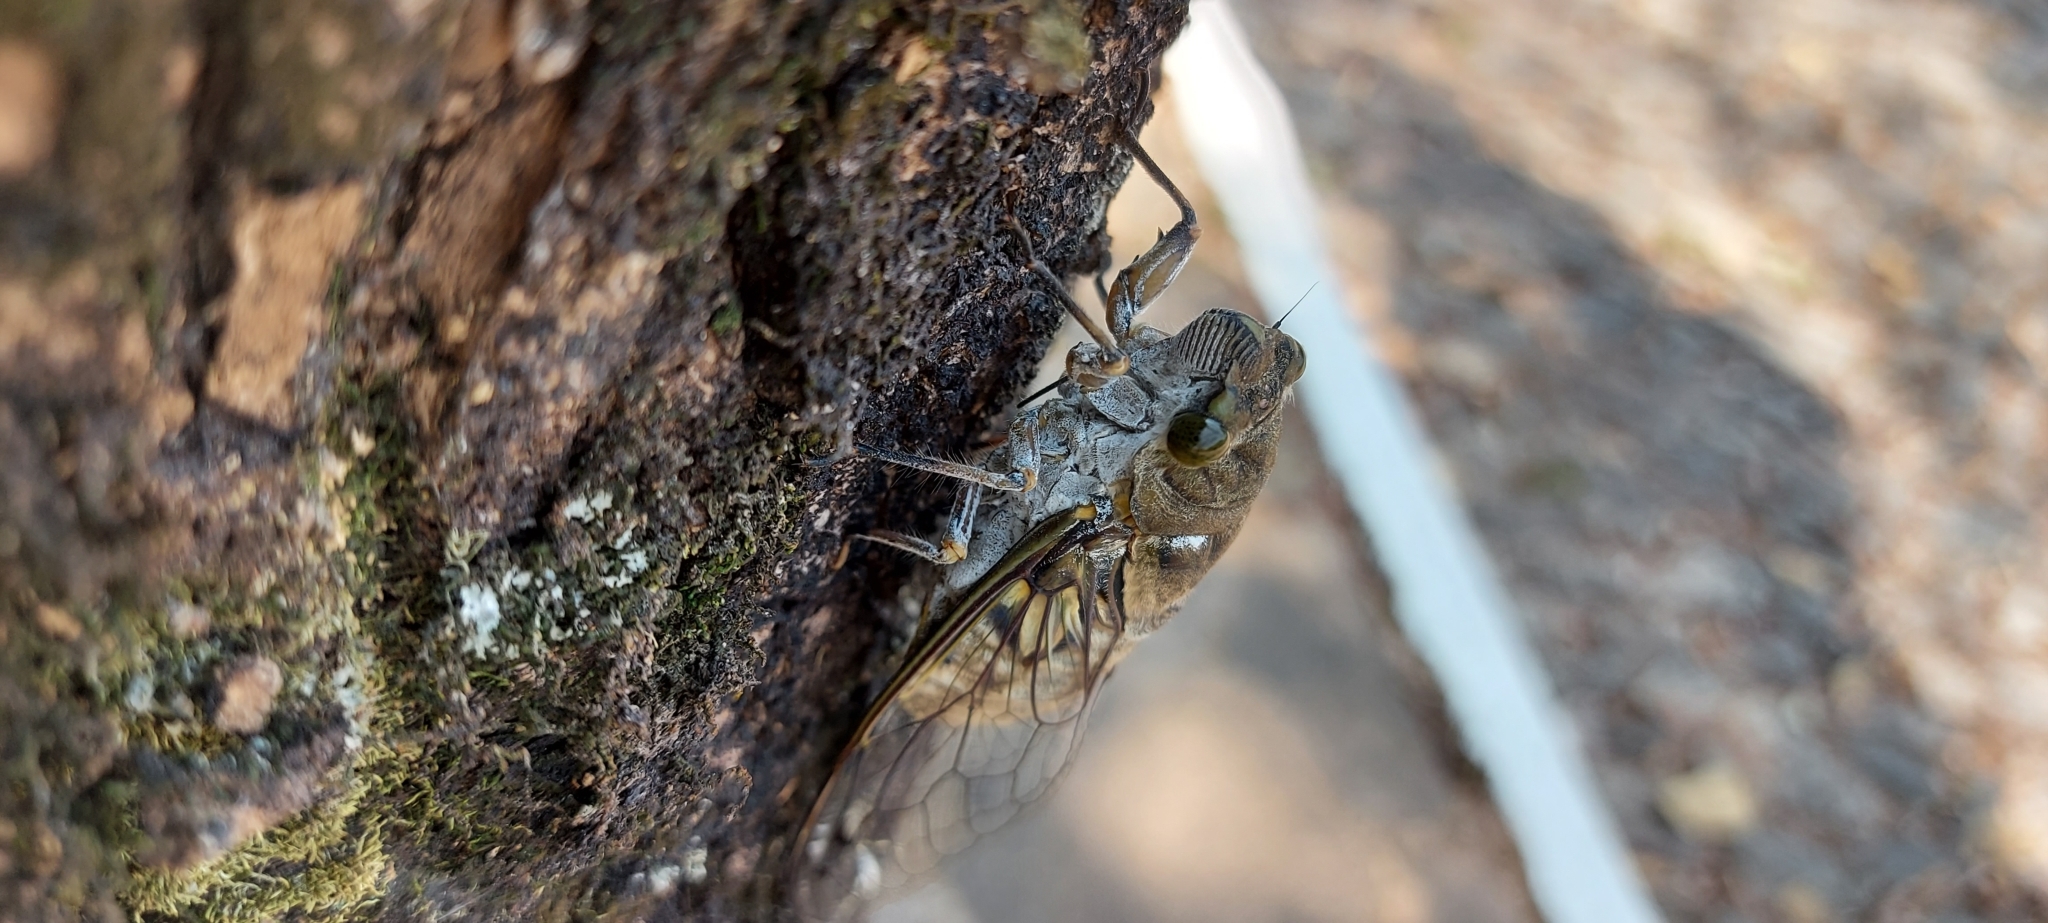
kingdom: Animalia
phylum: Arthropoda
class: Insecta
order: Hemiptera
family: Cicadidae
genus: Quesada
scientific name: Quesada gigas
